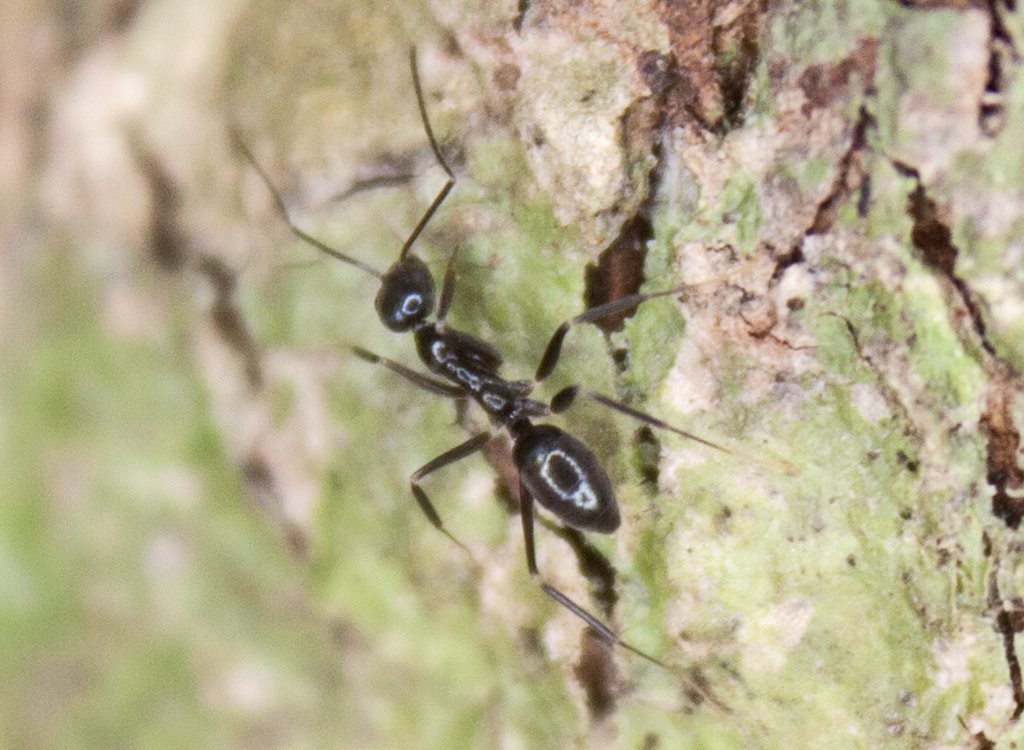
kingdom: Animalia
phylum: Arthropoda
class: Insecta
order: Hymenoptera
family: Formicidae
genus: Leptomyrmex
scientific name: Leptomyrmex burwelli
